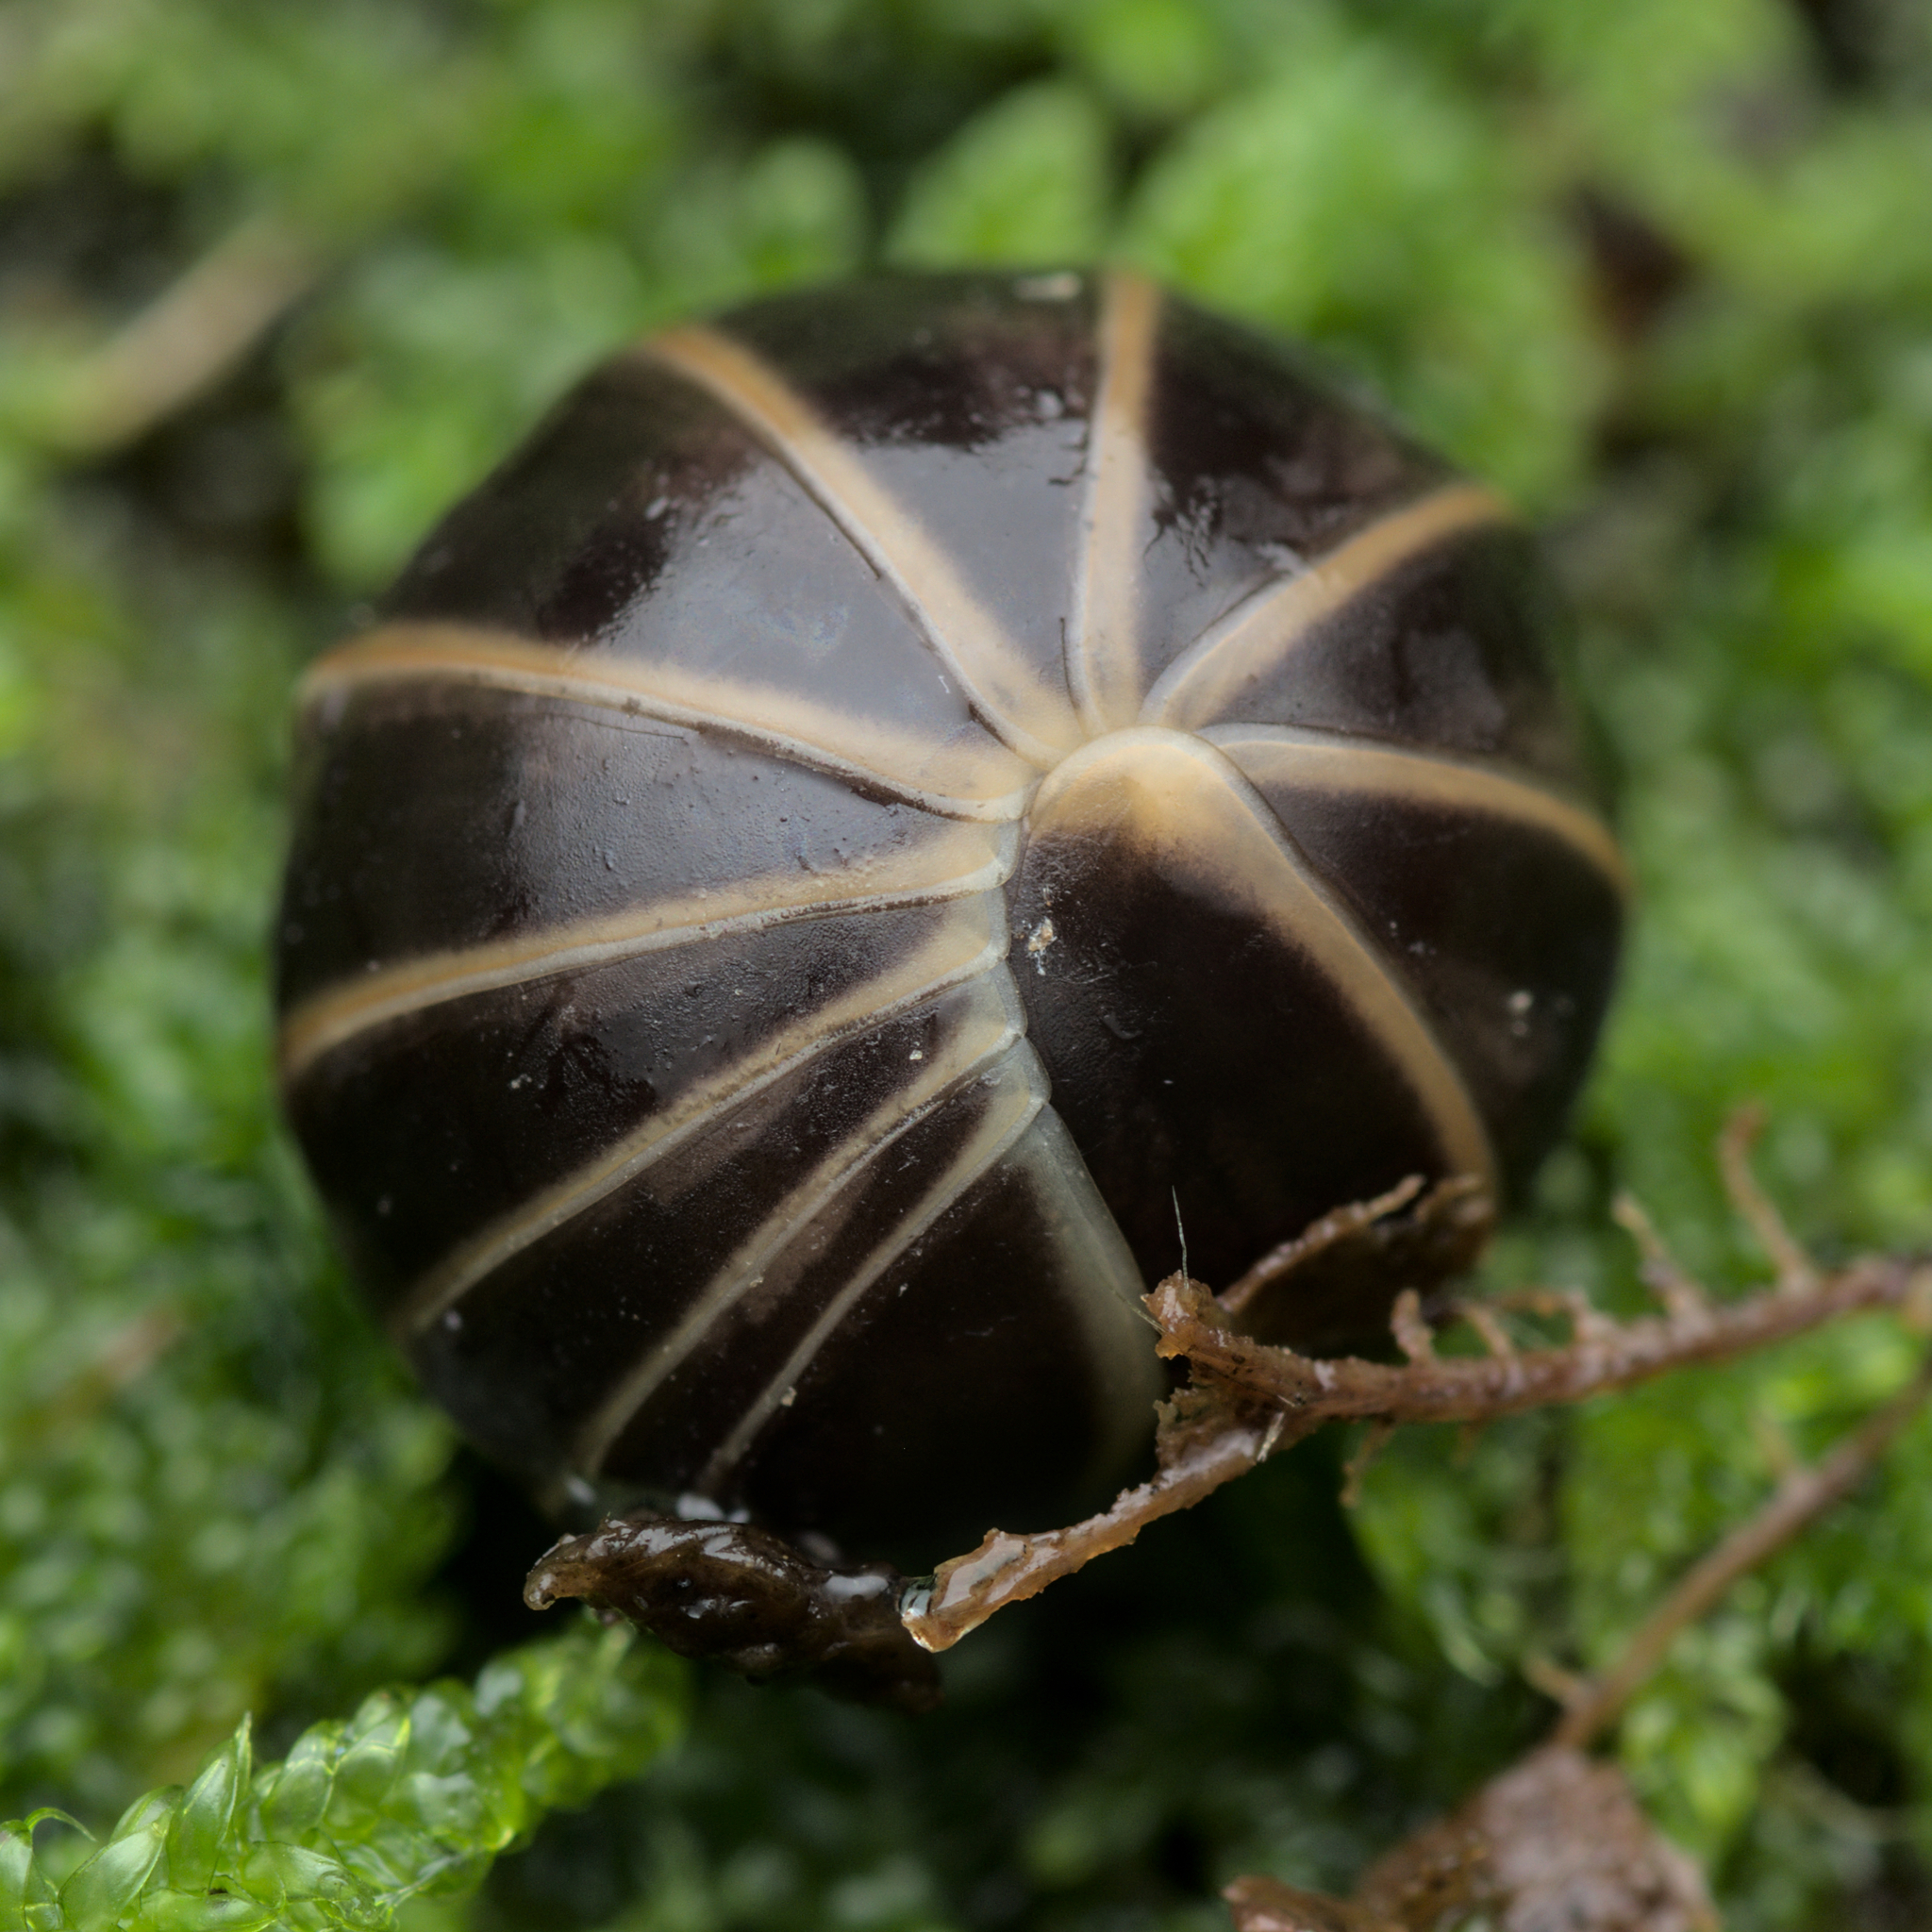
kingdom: Animalia
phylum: Arthropoda
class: Diplopoda
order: Glomerida
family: Glomeridae
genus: Glomeris
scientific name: Glomeris marginata
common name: Bordered pill millipede
